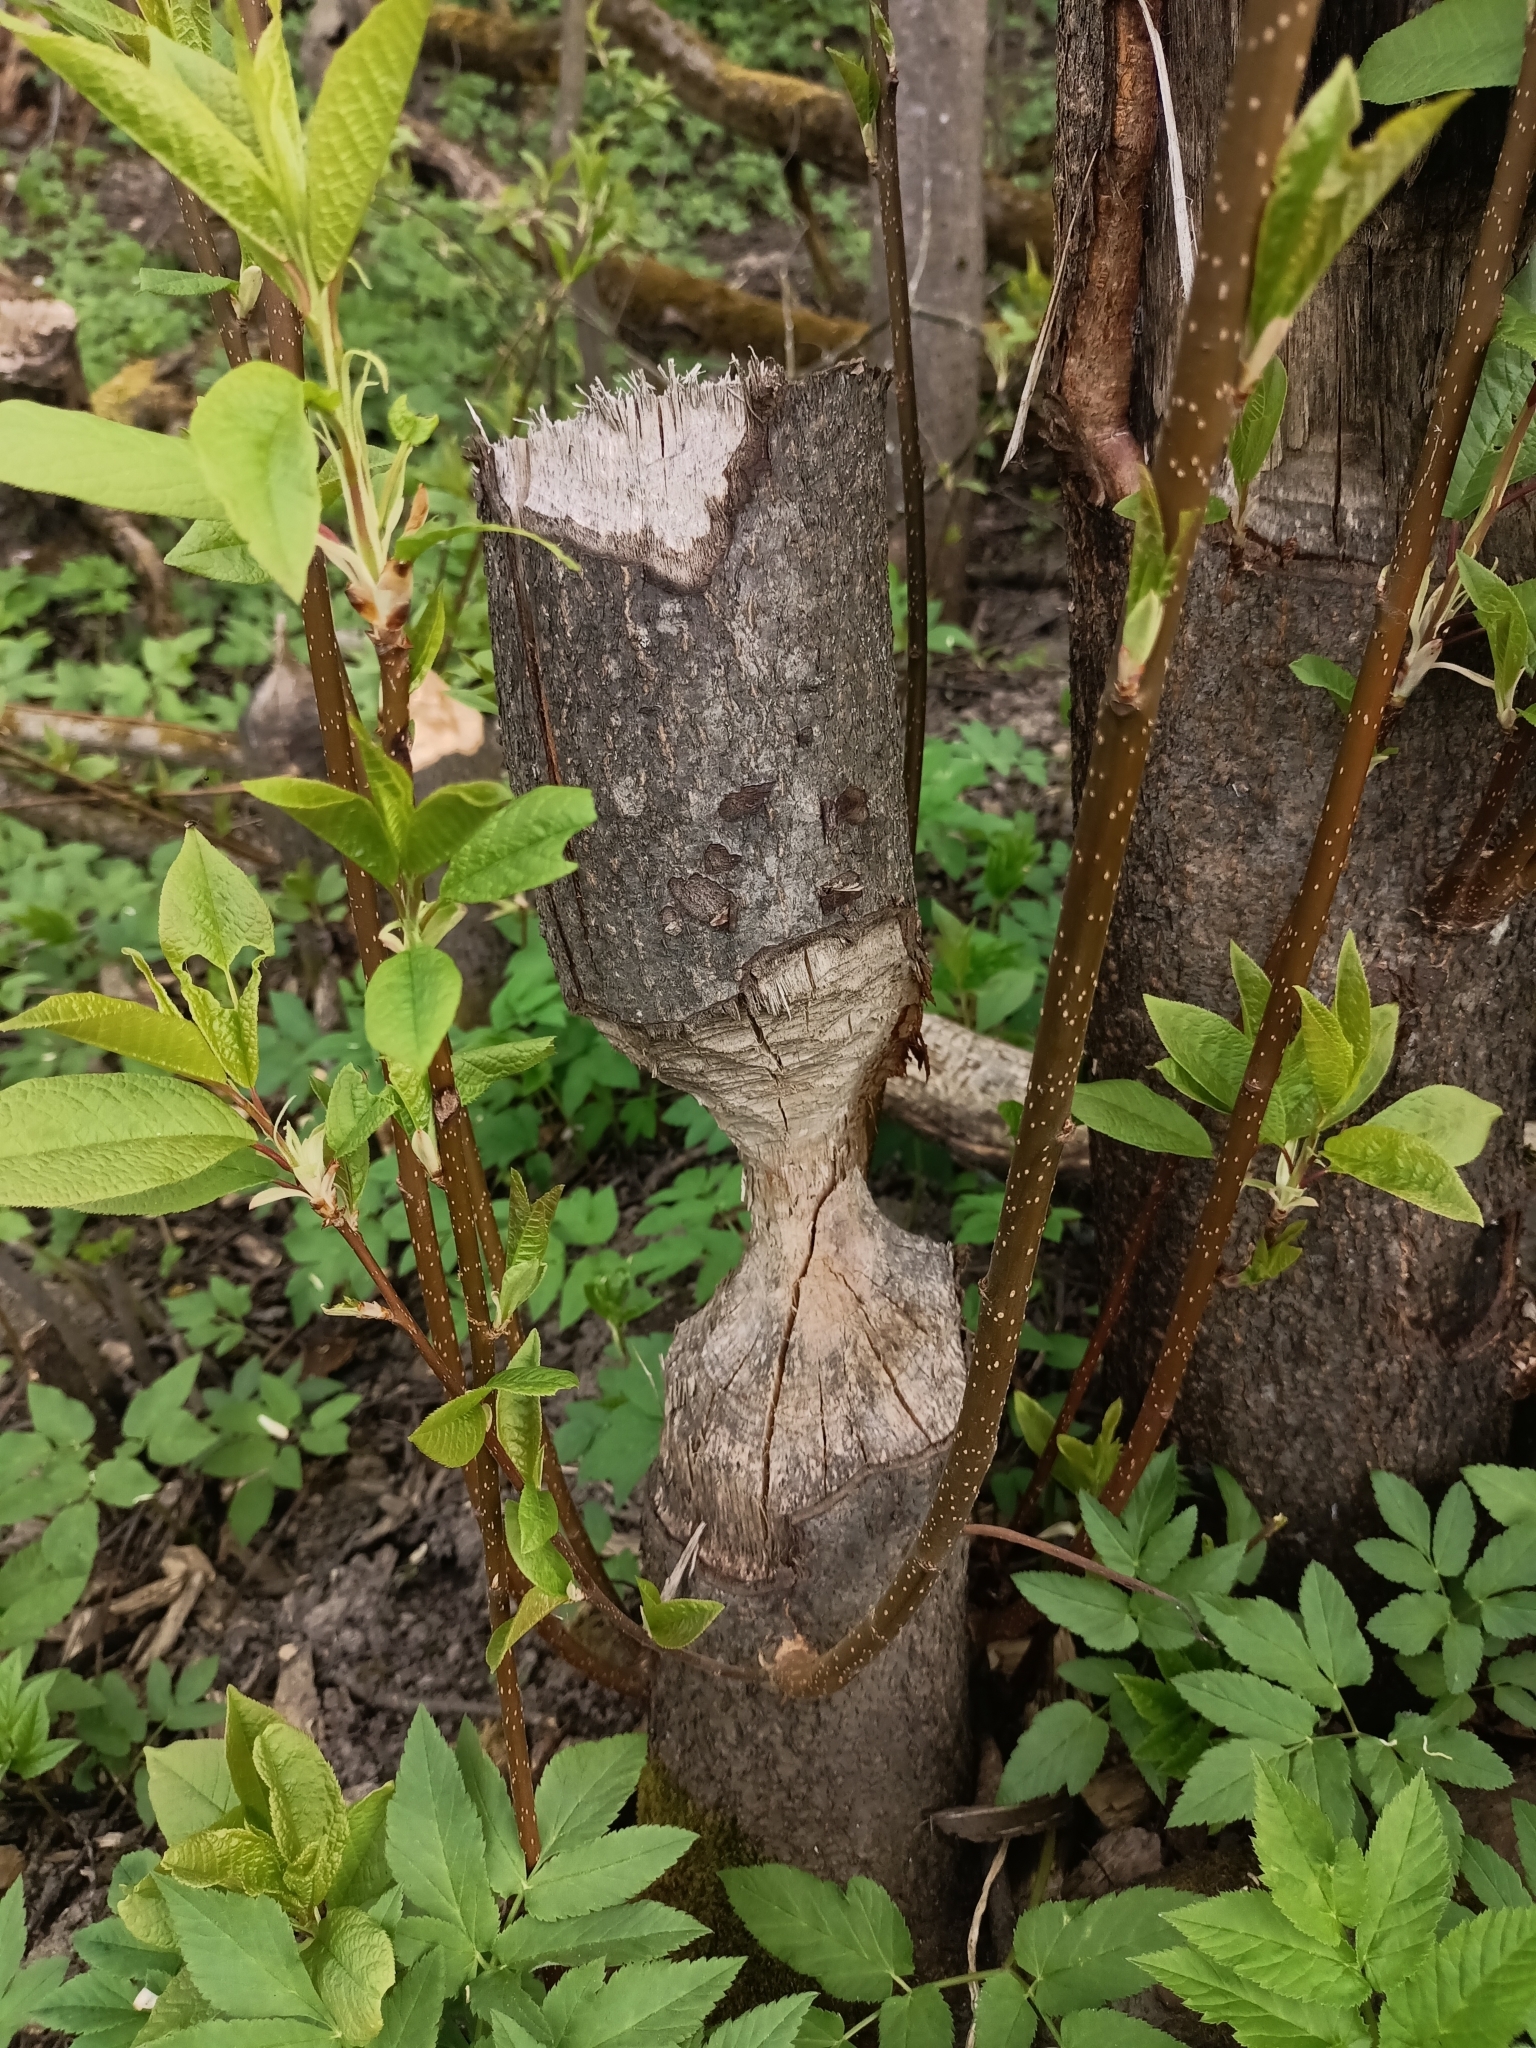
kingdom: Animalia
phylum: Chordata
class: Mammalia
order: Rodentia
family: Castoridae
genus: Castor
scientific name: Castor fiber
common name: Eurasian beaver
